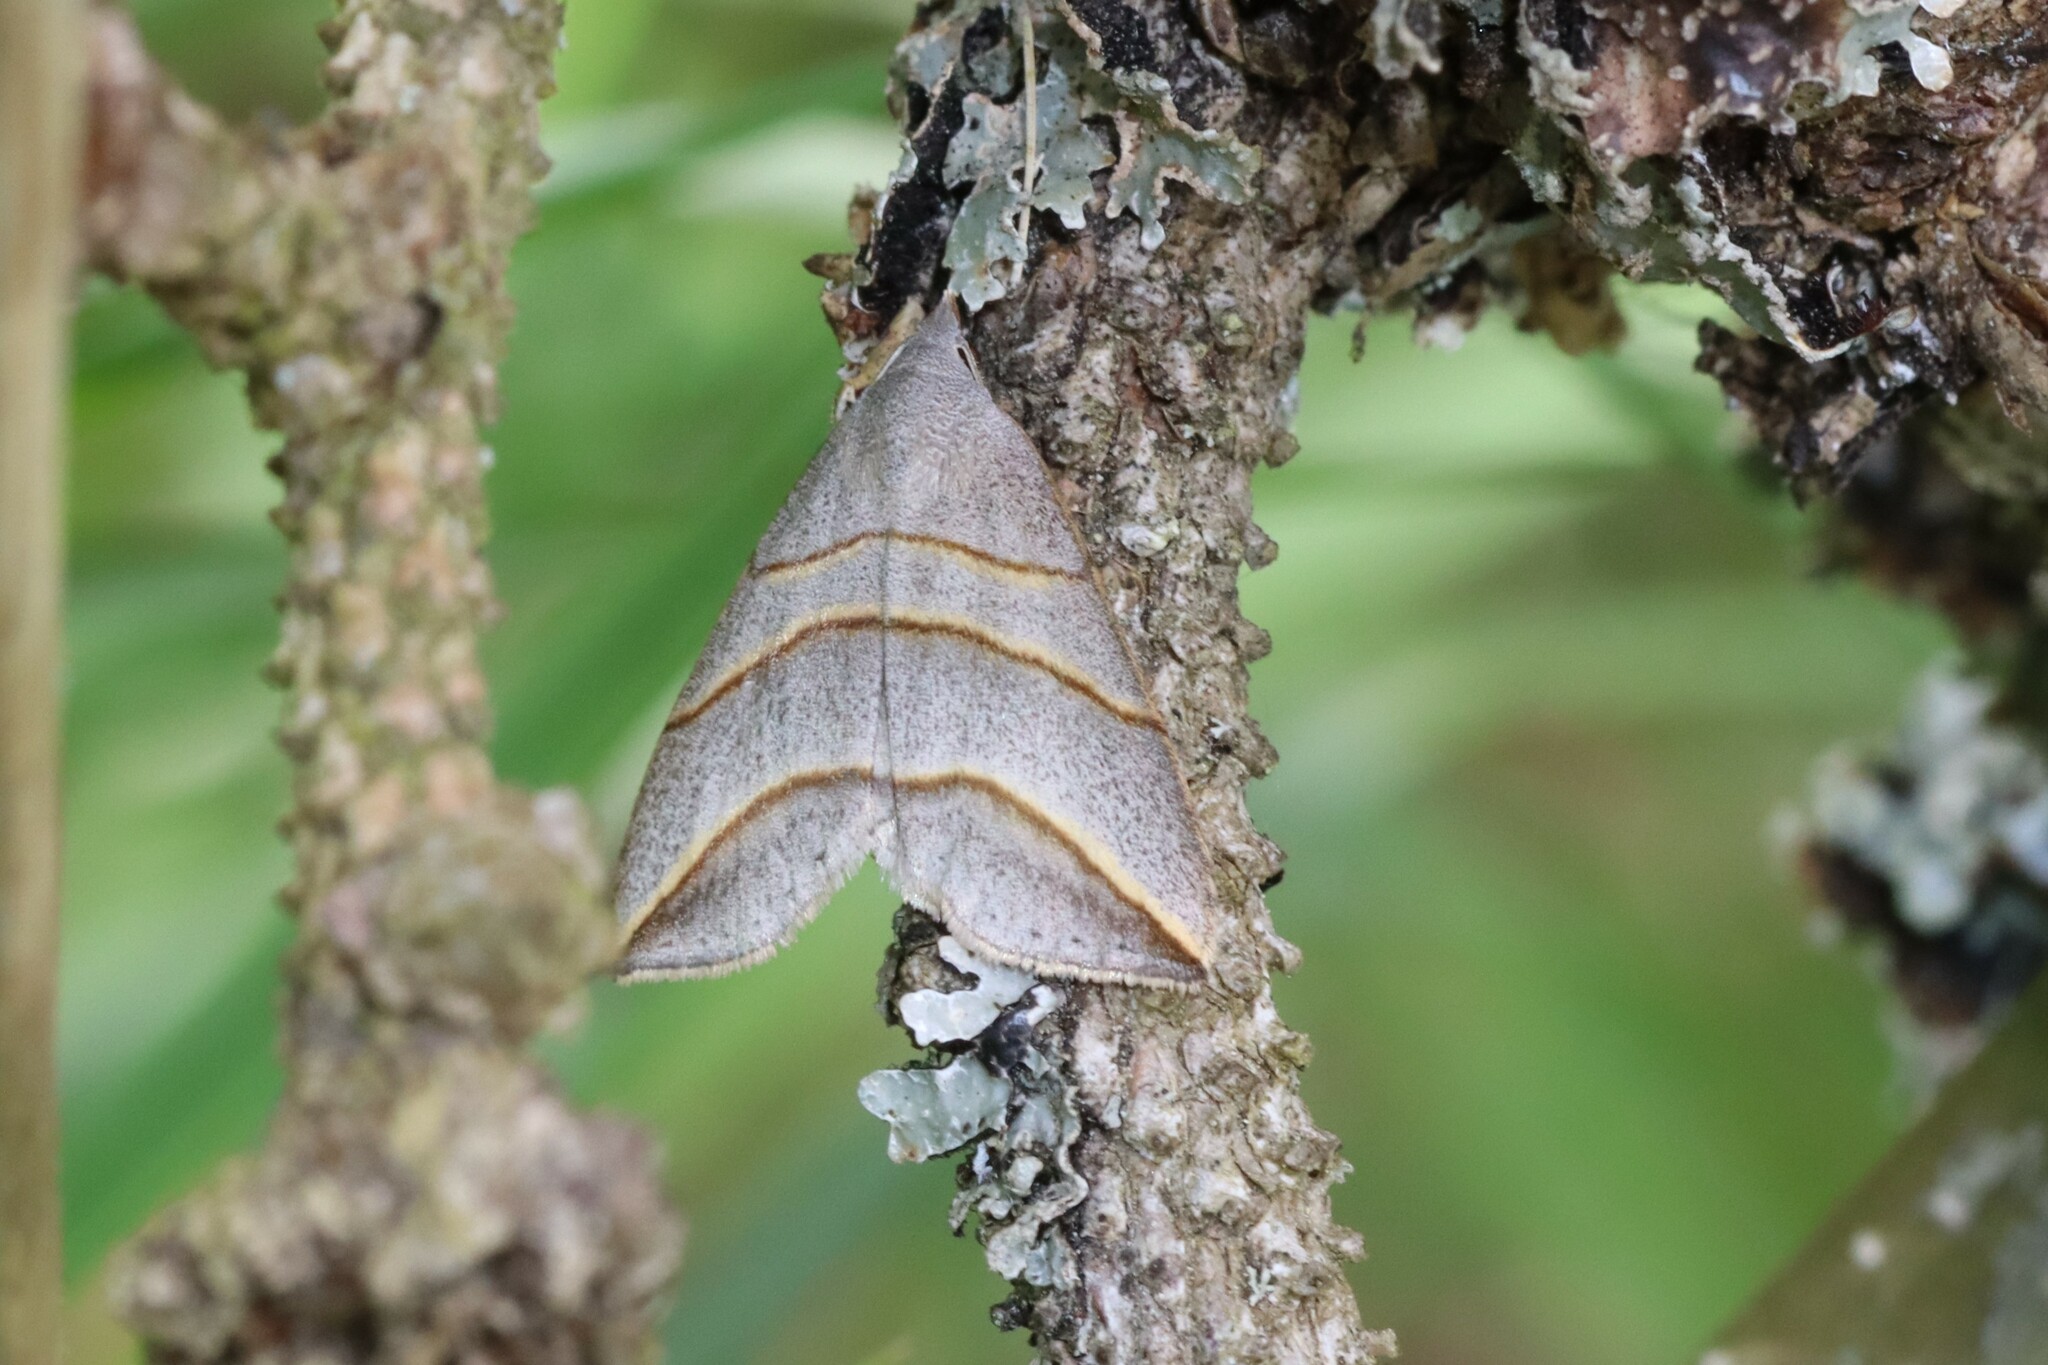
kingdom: Animalia
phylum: Arthropoda
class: Insecta
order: Lepidoptera
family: Erebidae
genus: Colobochyla
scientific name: Colobochyla salicalis
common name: Lesser belle
